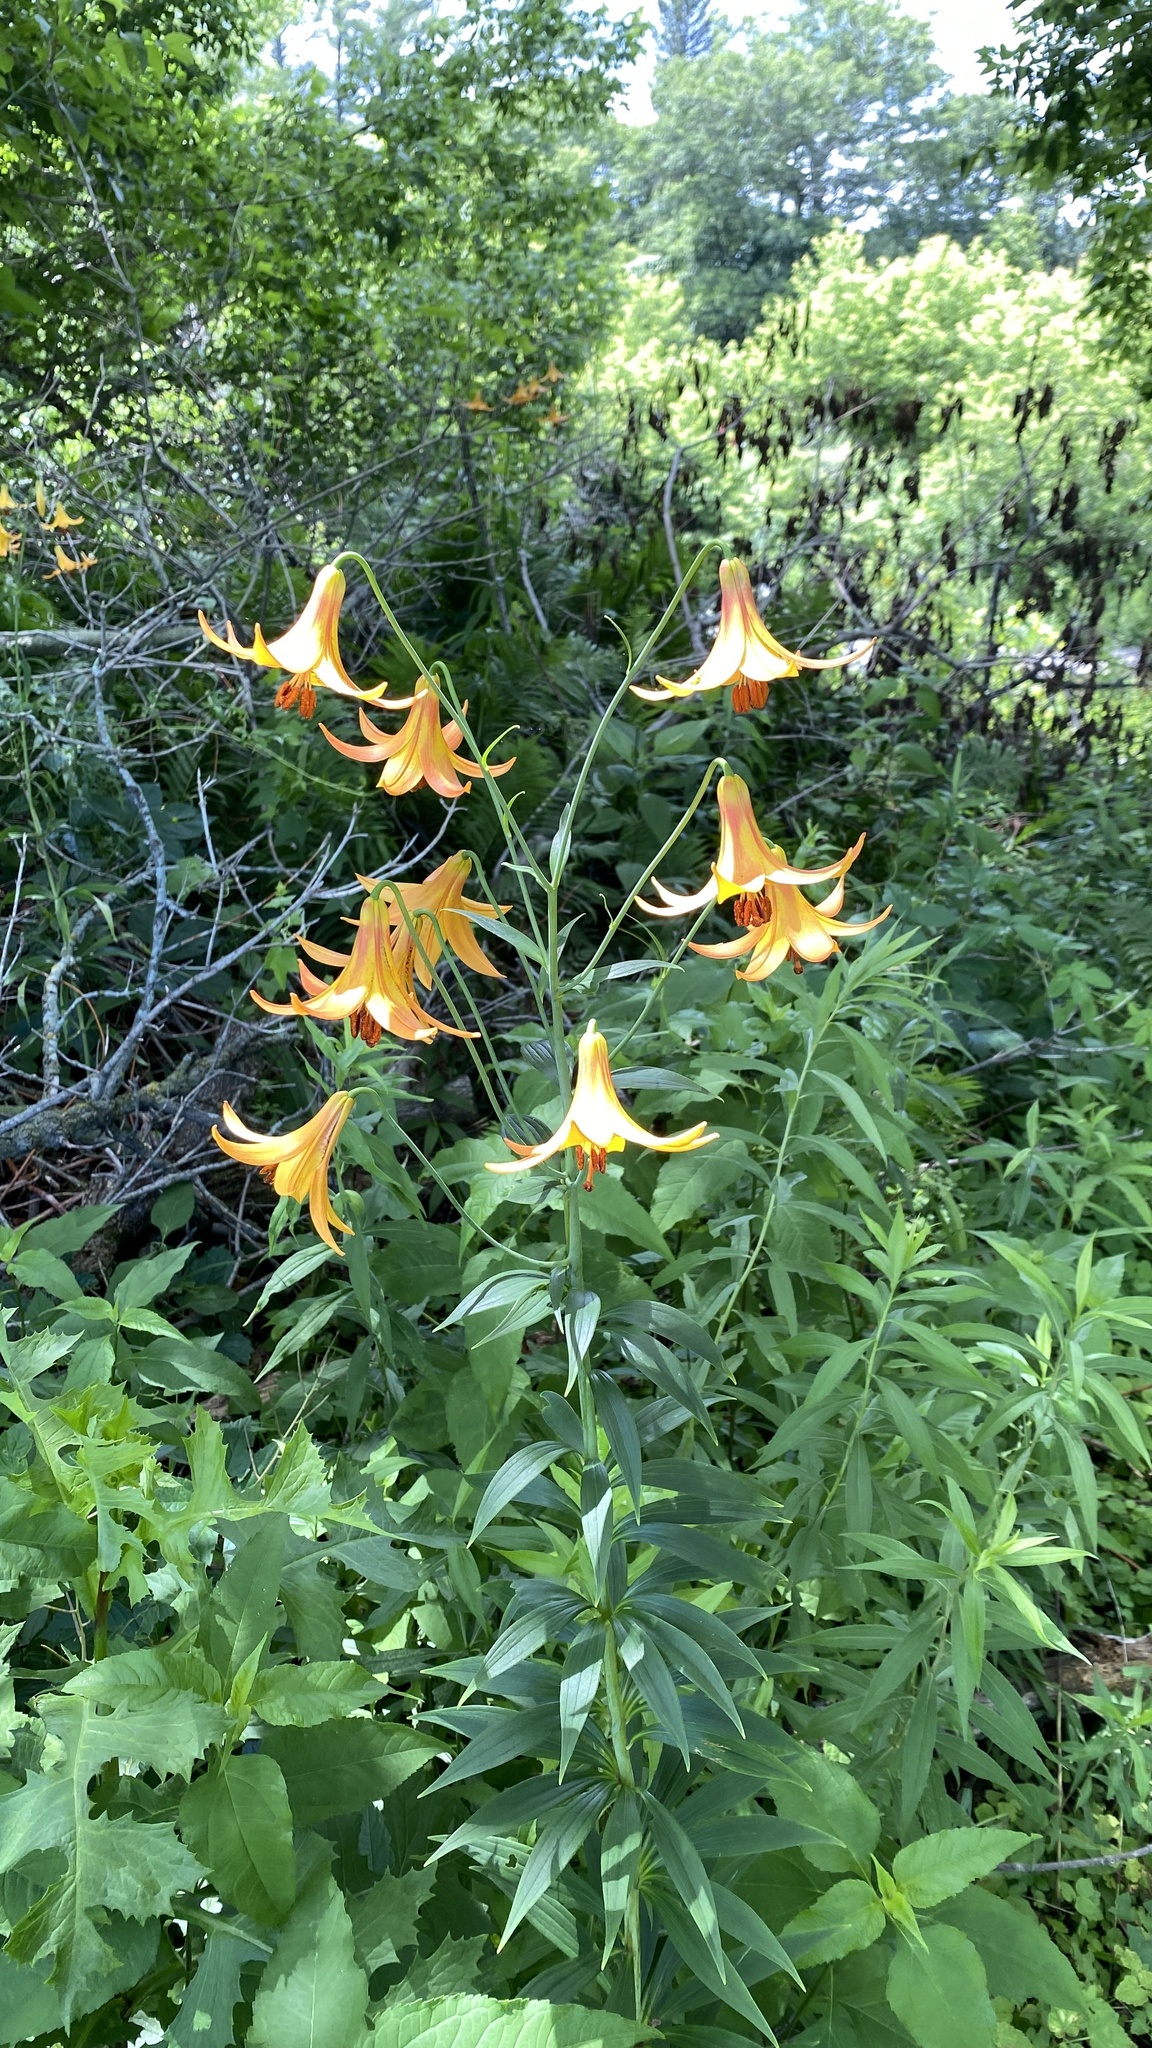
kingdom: Plantae
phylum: Tracheophyta
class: Liliopsida
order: Liliales
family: Liliaceae
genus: Lilium
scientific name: Lilium canadense
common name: Canada lily
